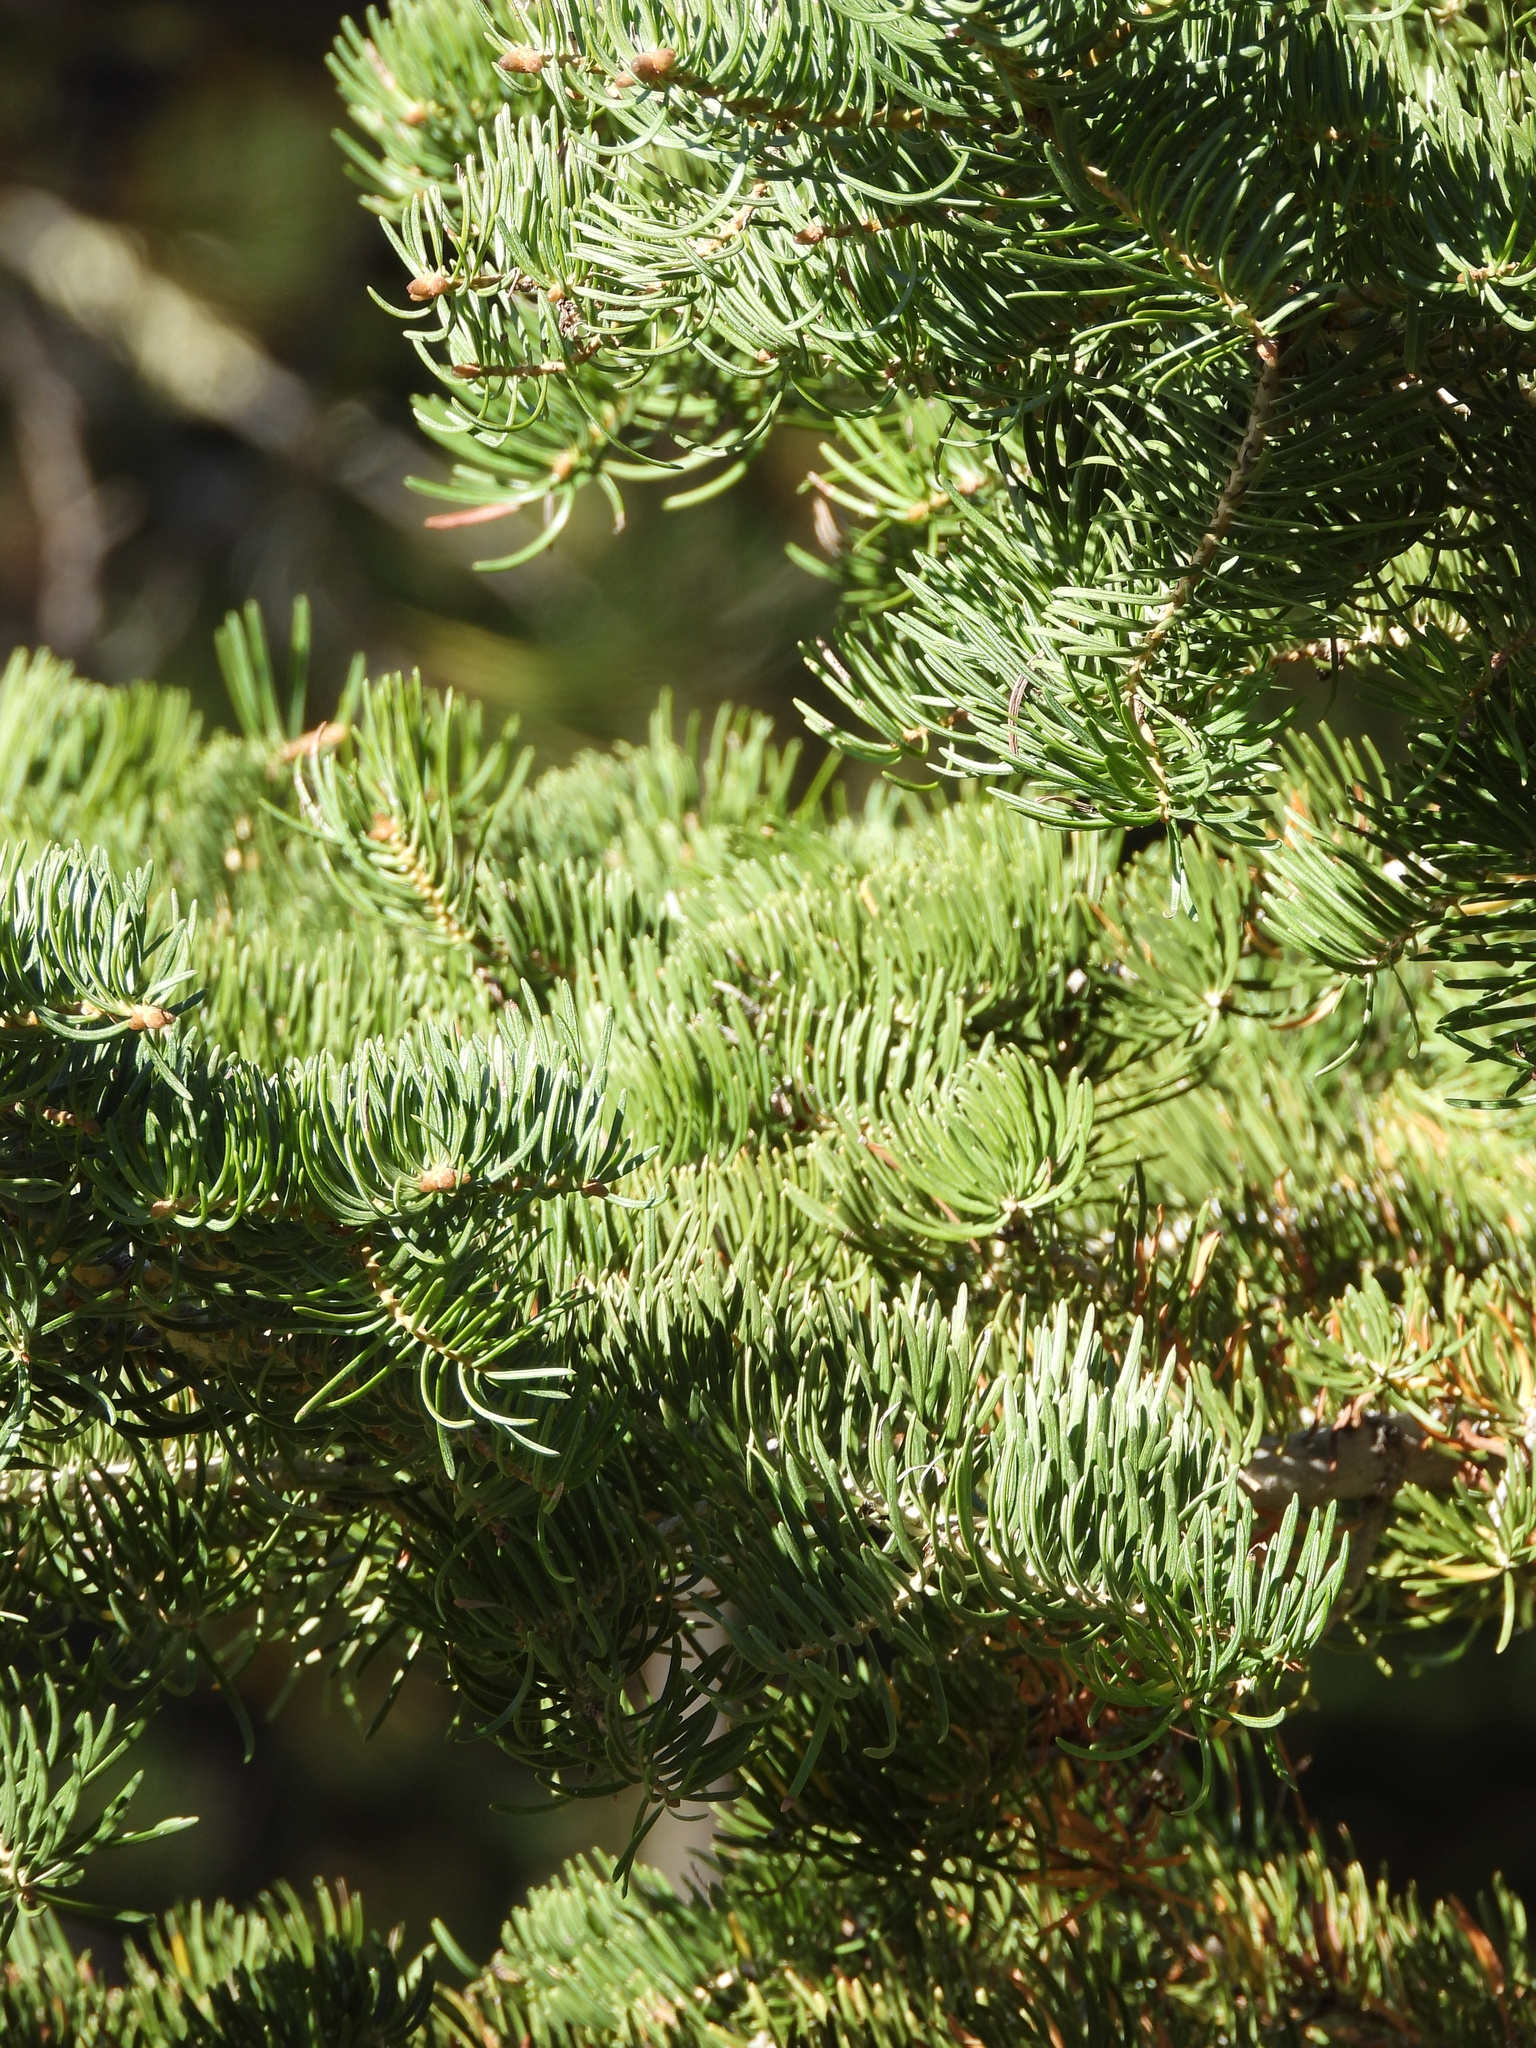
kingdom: Plantae
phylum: Tracheophyta
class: Pinopsida
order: Pinales
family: Pinaceae
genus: Abies
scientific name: Abies concolor
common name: Colorado fir
